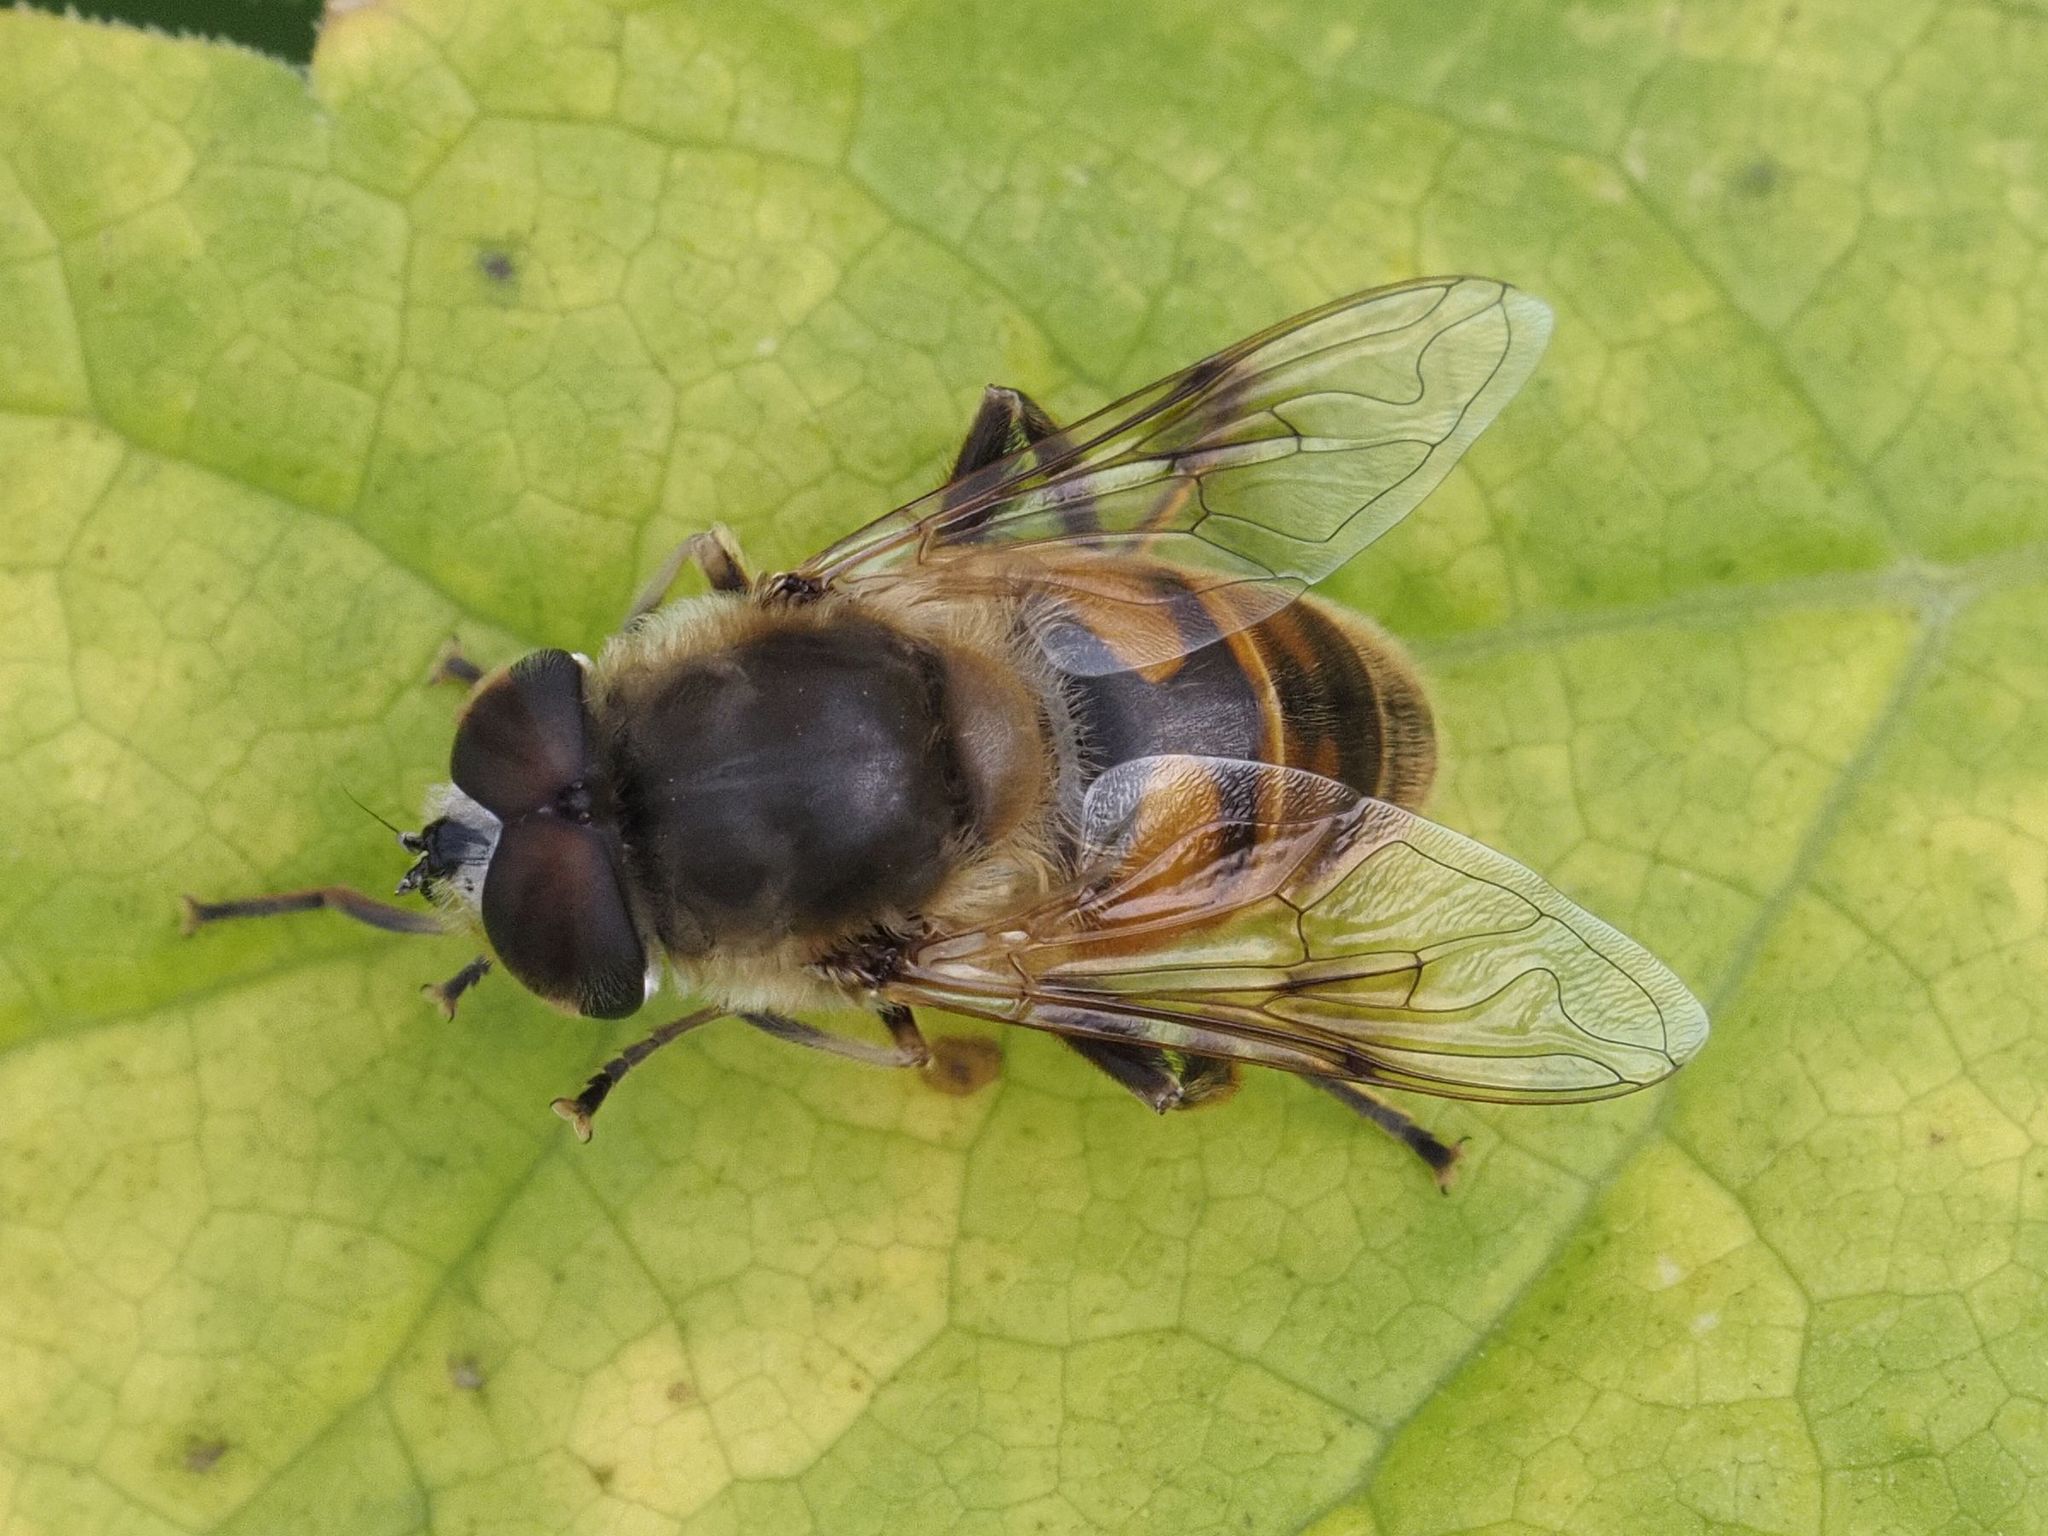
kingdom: Animalia
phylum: Arthropoda
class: Insecta
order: Diptera
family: Syrphidae
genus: Eristalis
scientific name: Eristalis tenax
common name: Drone fly
